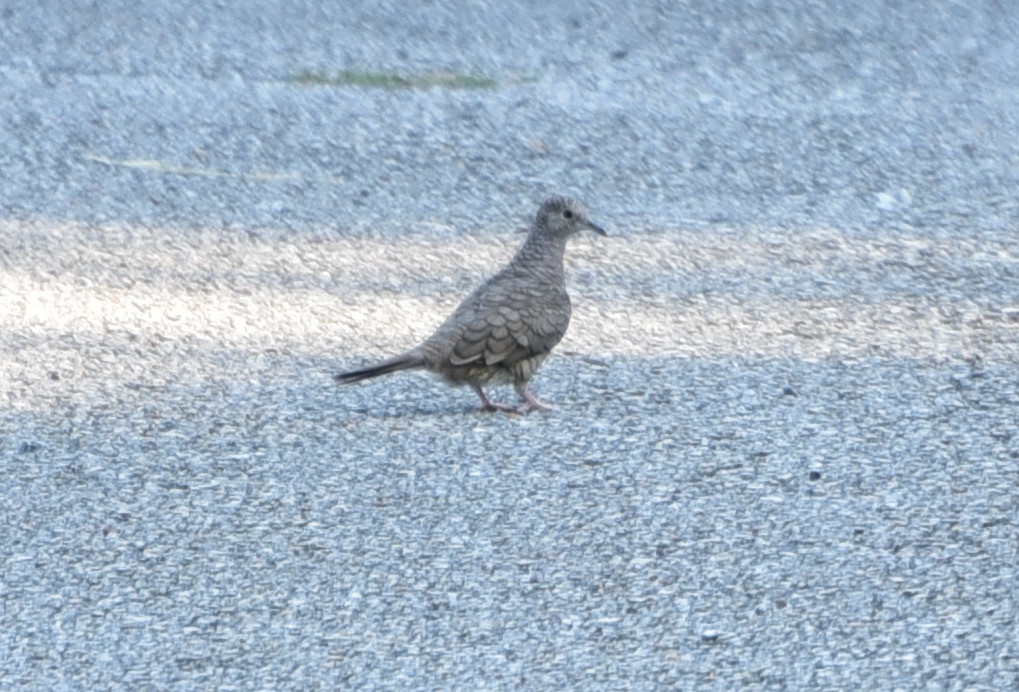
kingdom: Animalia
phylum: Chordata
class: Aves
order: Columbiformes
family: Columbidae
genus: Columbina
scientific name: Columbina inca
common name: Inca dove
